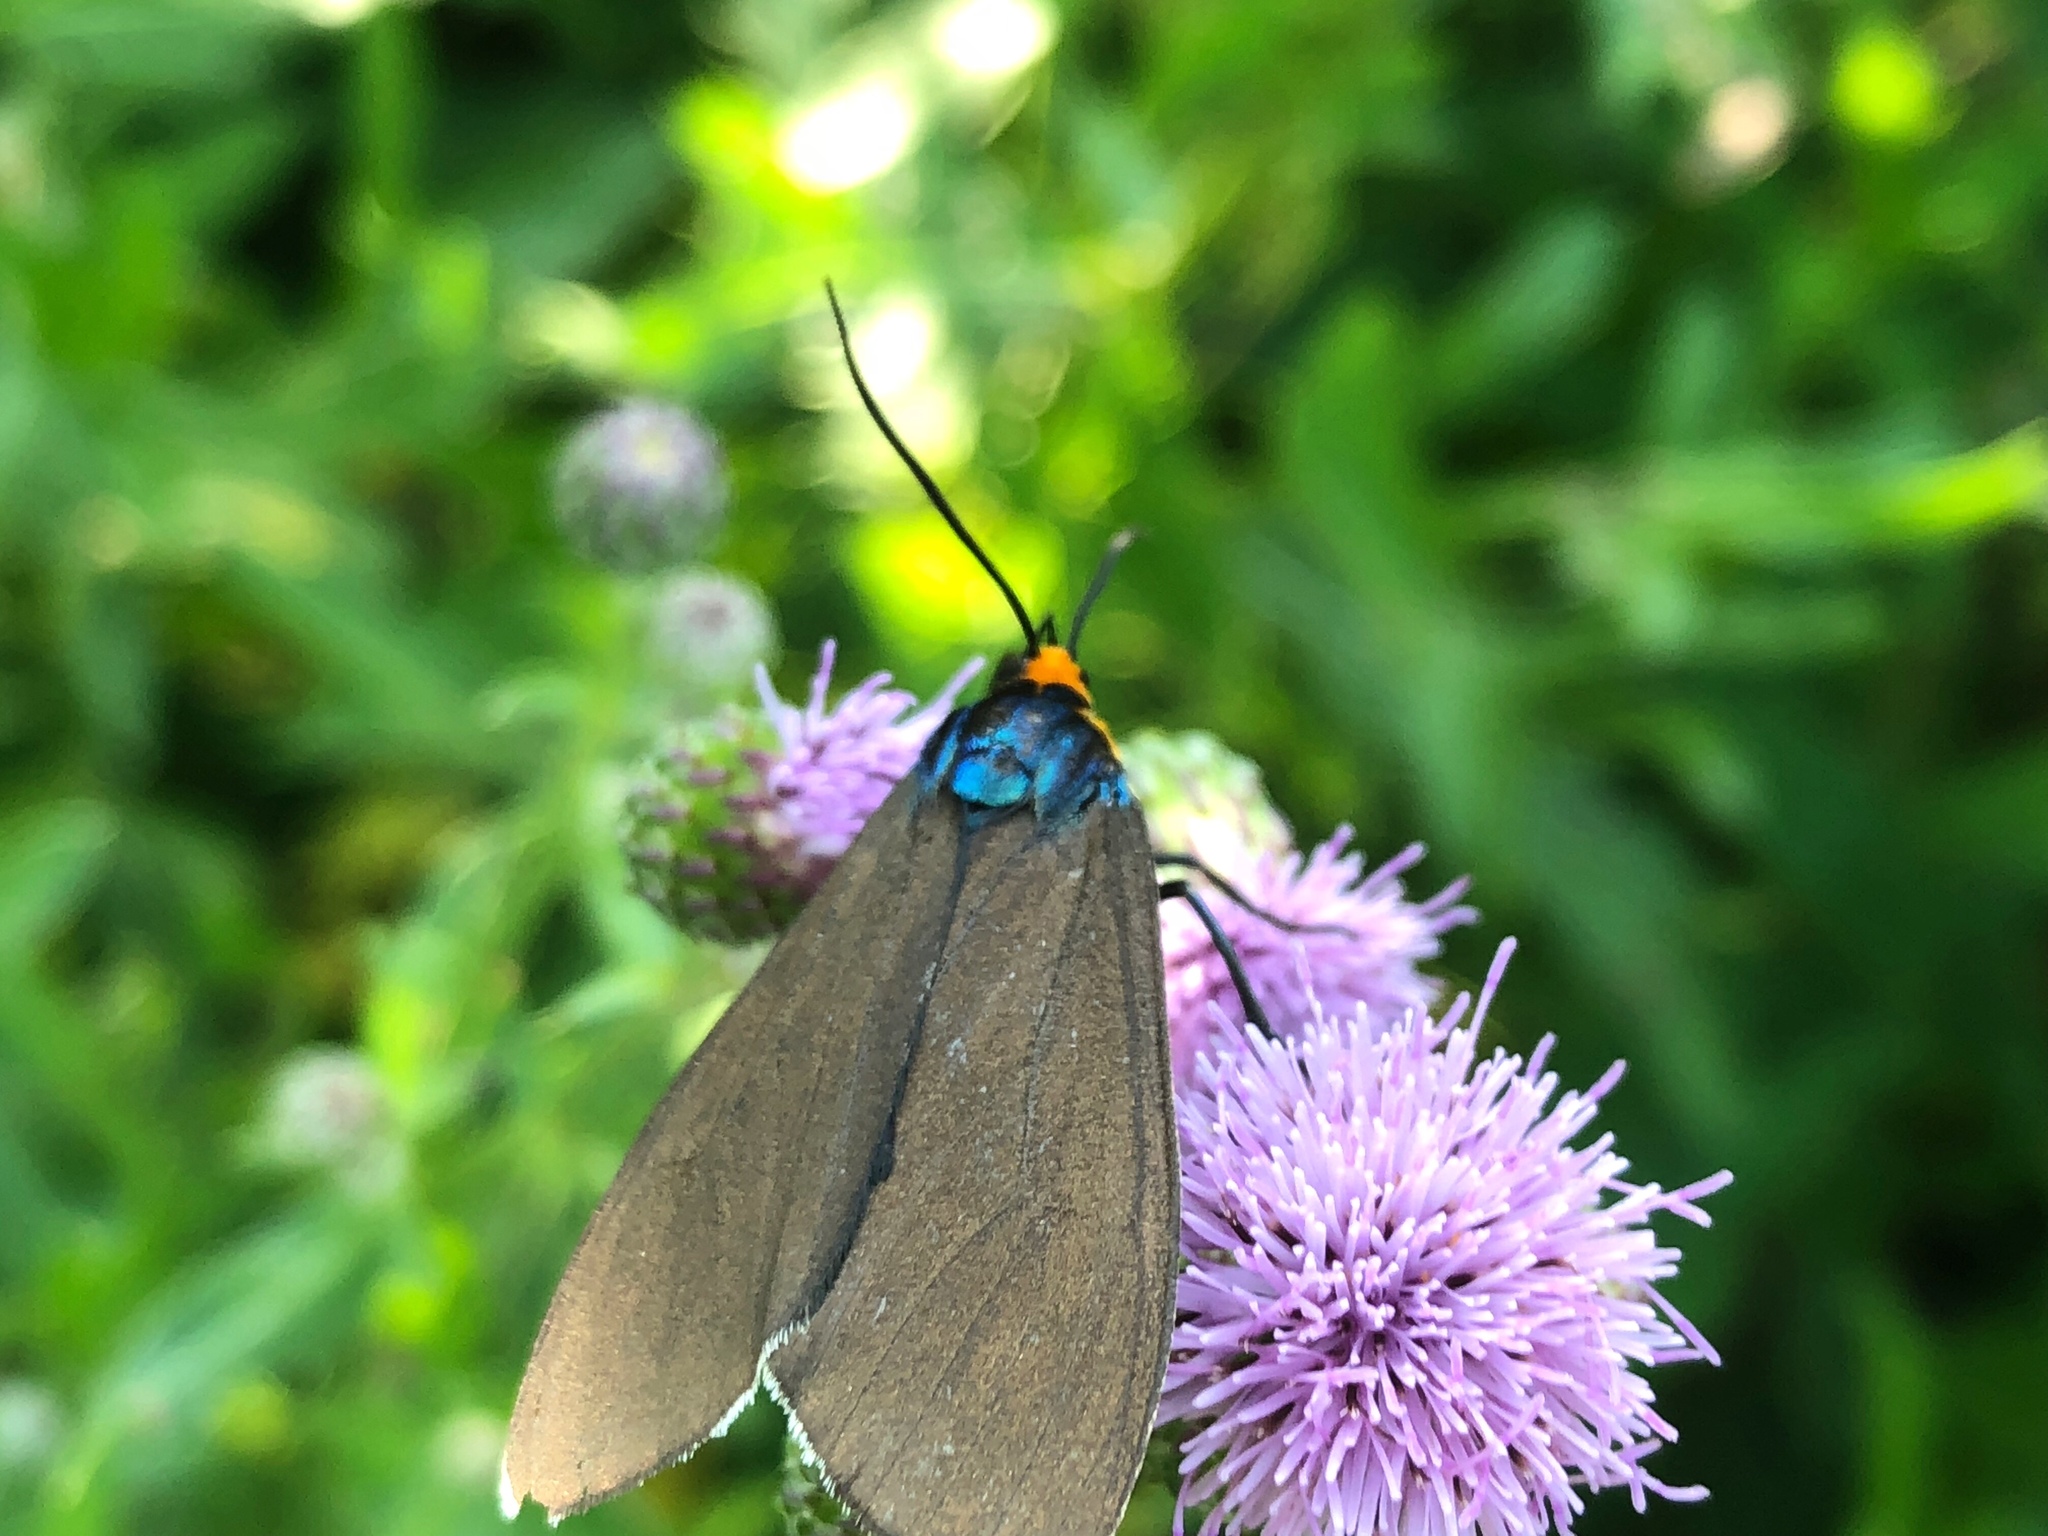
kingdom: Animalia
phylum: Arthropoda
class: Insecta
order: Lepidoptera
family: Erebidae
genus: Ctenucha
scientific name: Ctenucha virginica
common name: Virginia ctenucha moth
